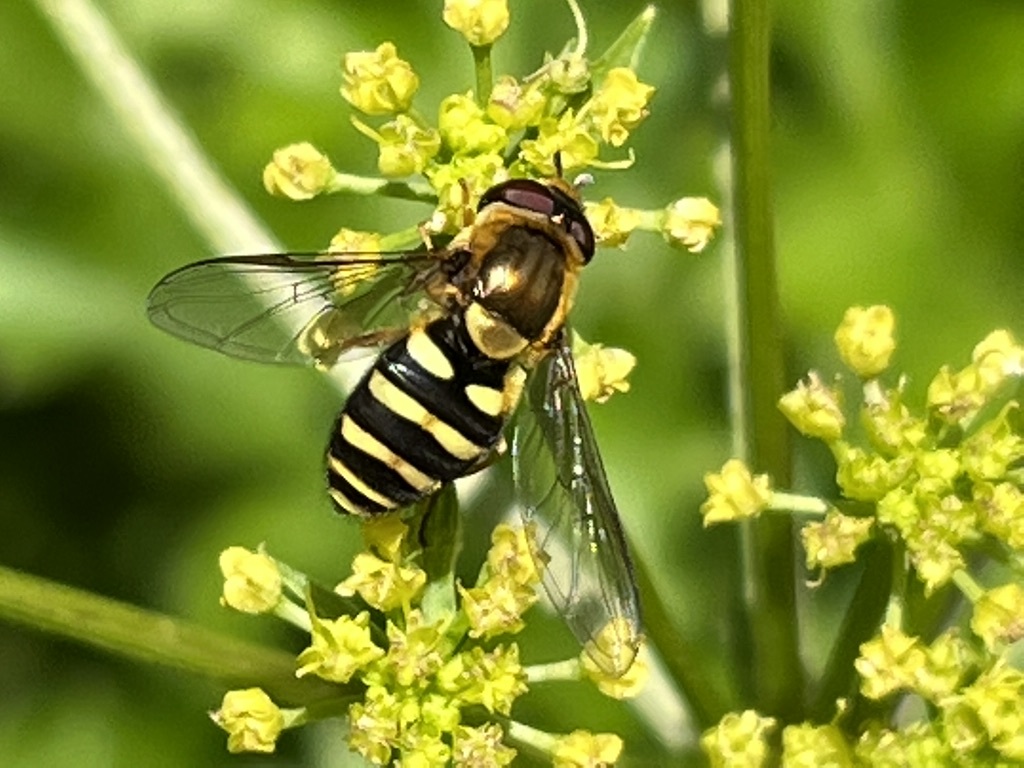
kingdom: Animalia
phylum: Arthropoda
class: Insecta
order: Diptera
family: Syrphidae
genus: Syrphus
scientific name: Syrphus opinator
